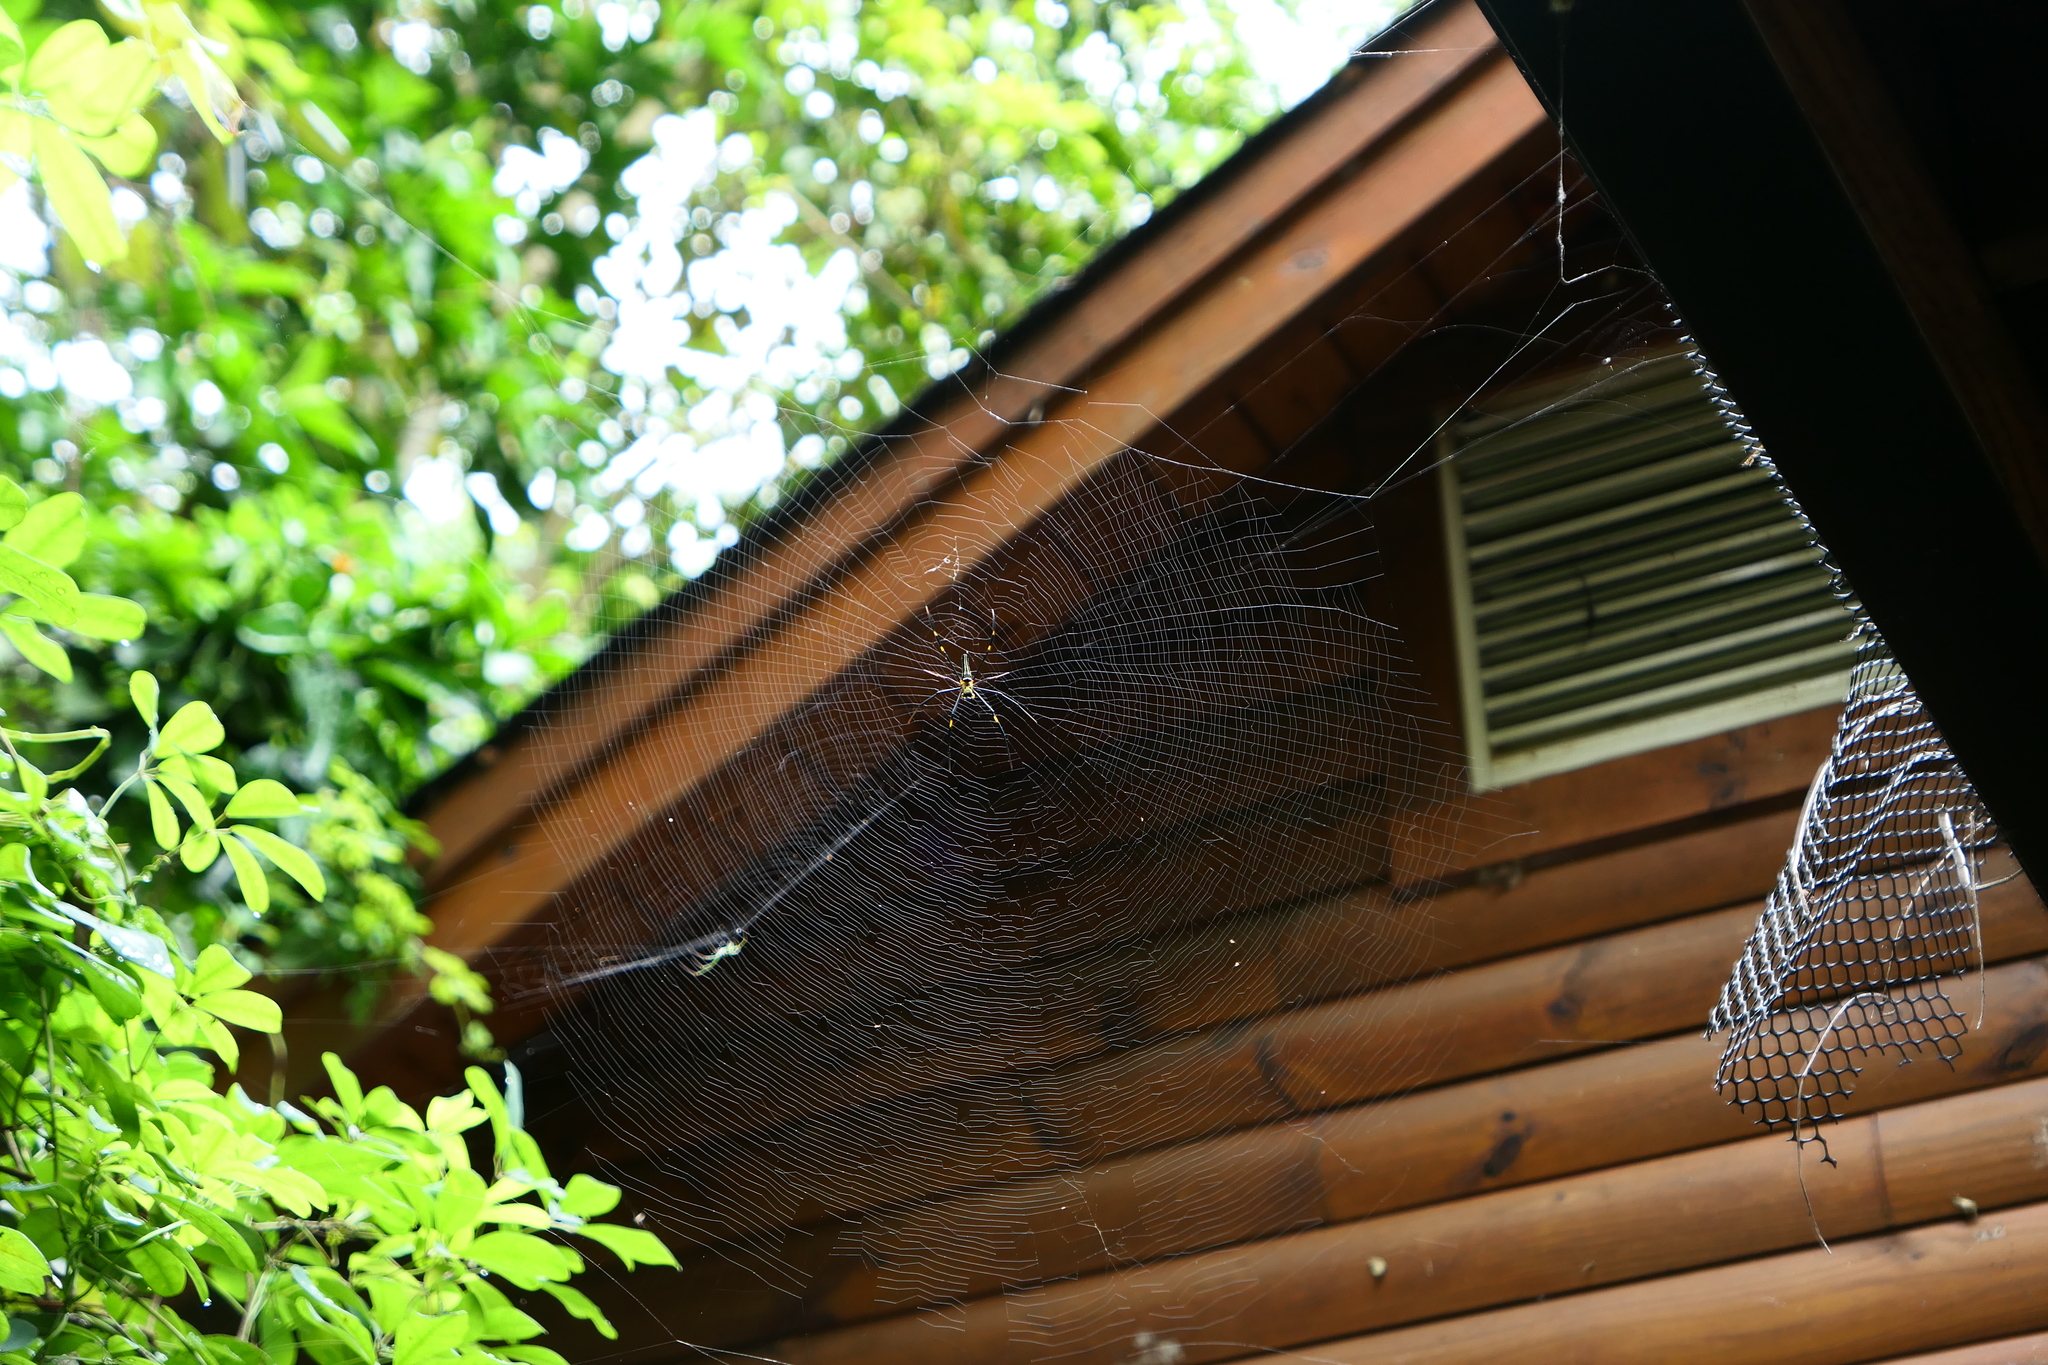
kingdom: Animalia
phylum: Arthropoda
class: Arachnida
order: Araneae
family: Araneidae
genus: Nephila
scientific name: Nephila pilipes
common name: Giant golden orb weaver
